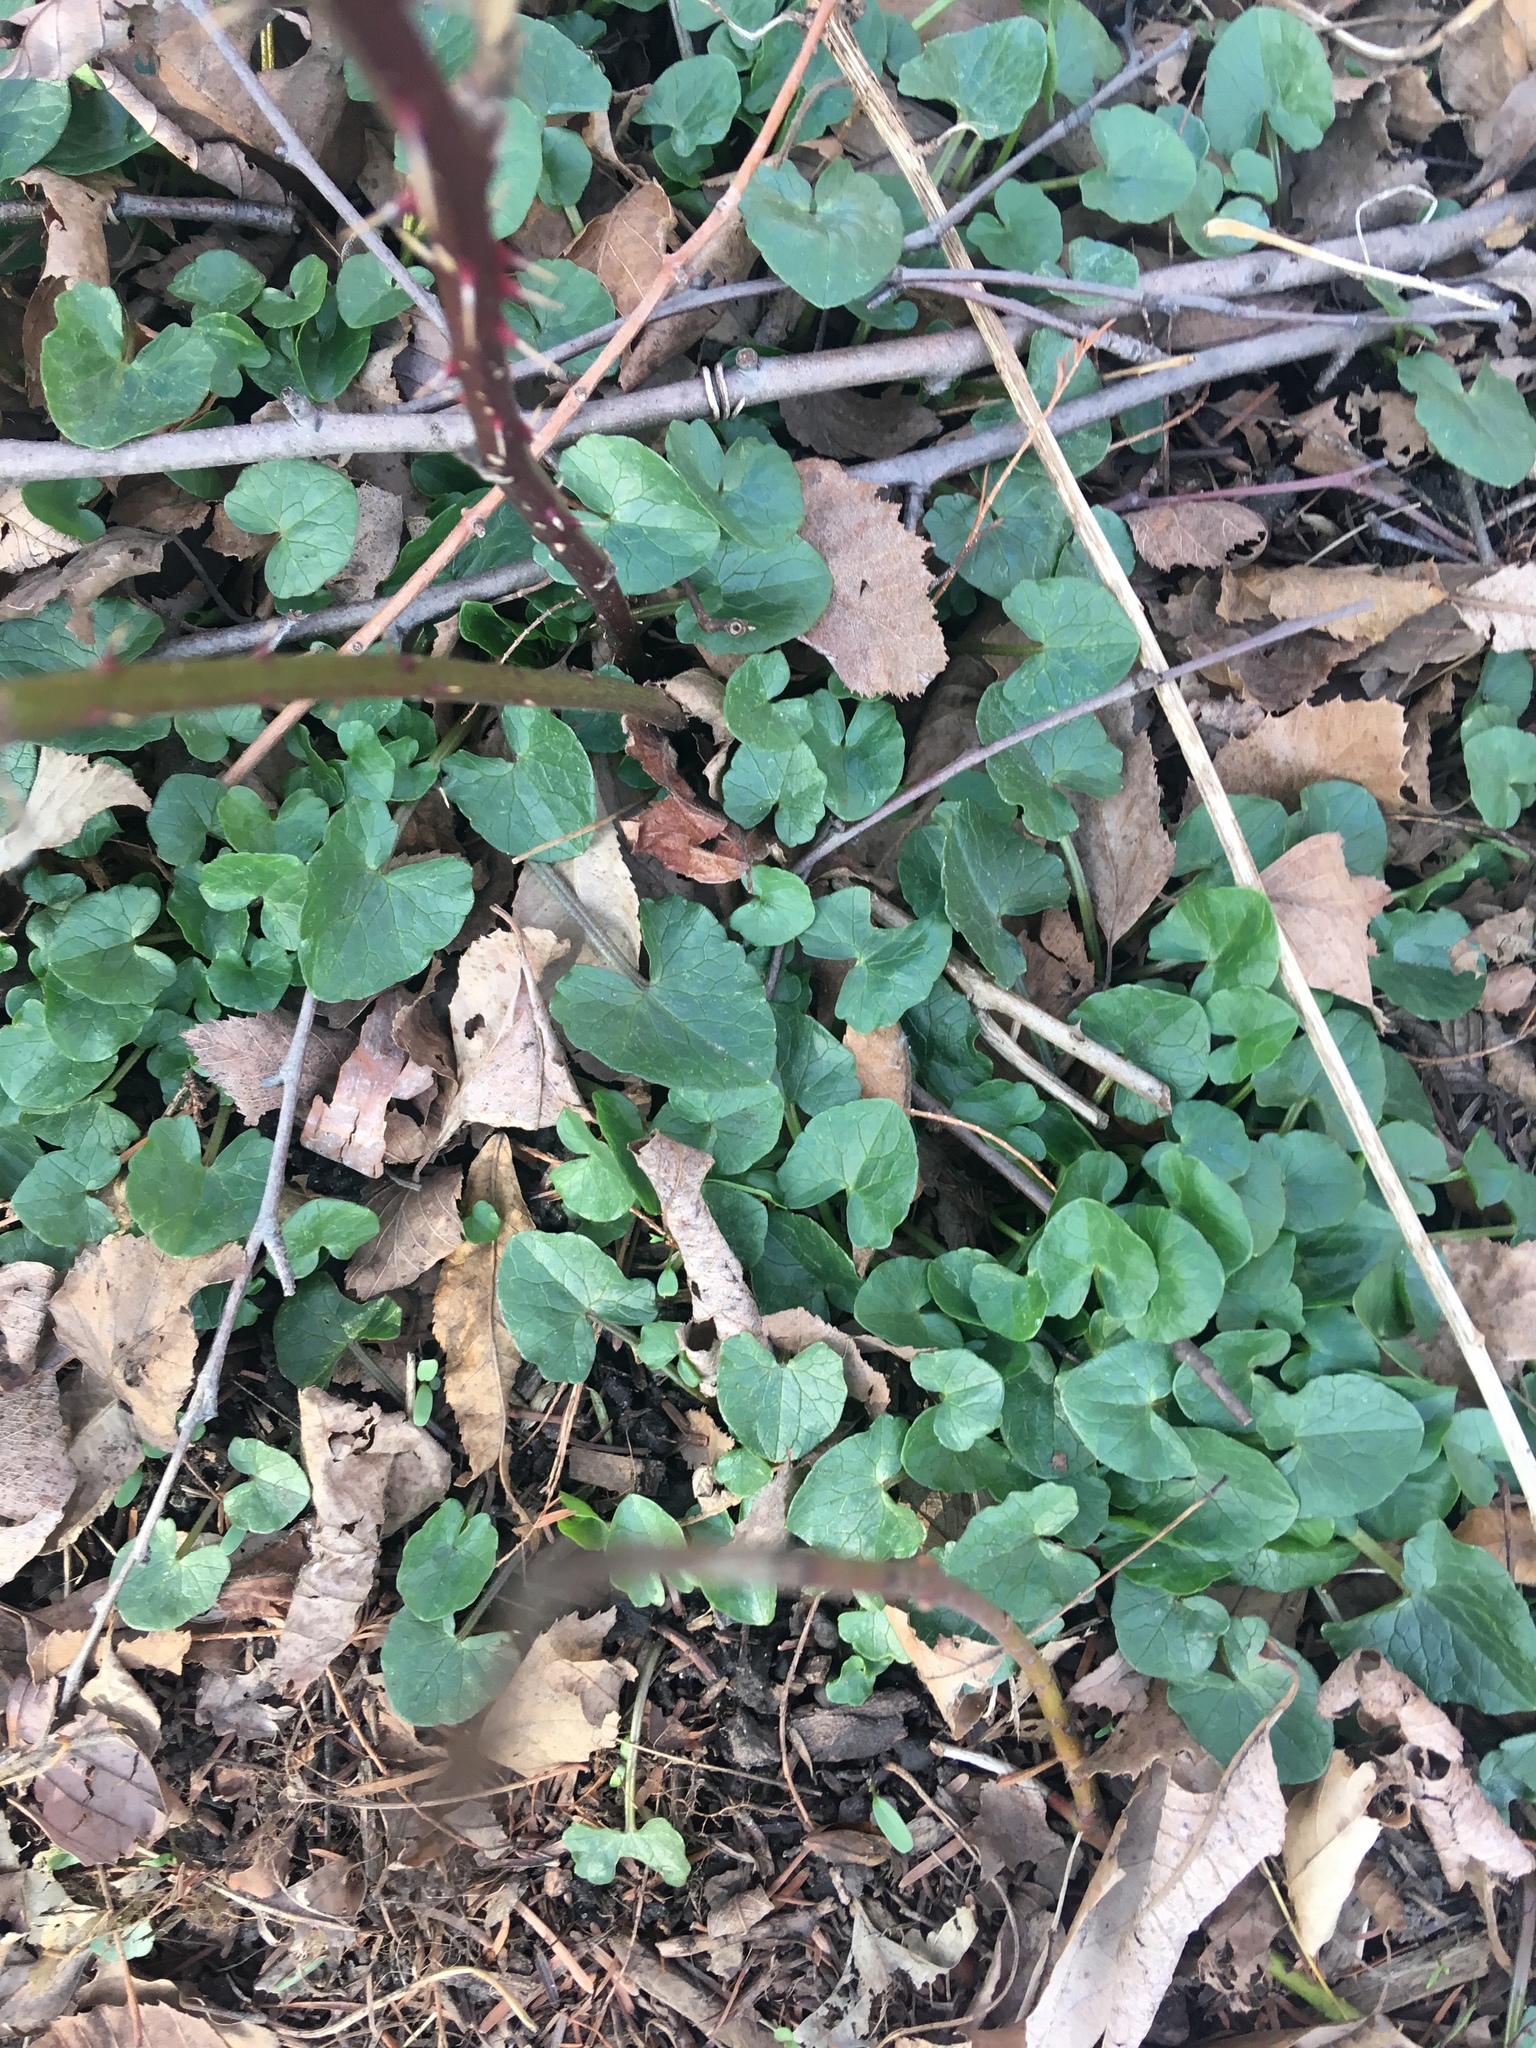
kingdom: Plantae
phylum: Tracheophyta
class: Magnoliopsida
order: Ranunculales
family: Ranunculaceae
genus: Ficaria
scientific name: Ficaria verna
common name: Lesser celandine
